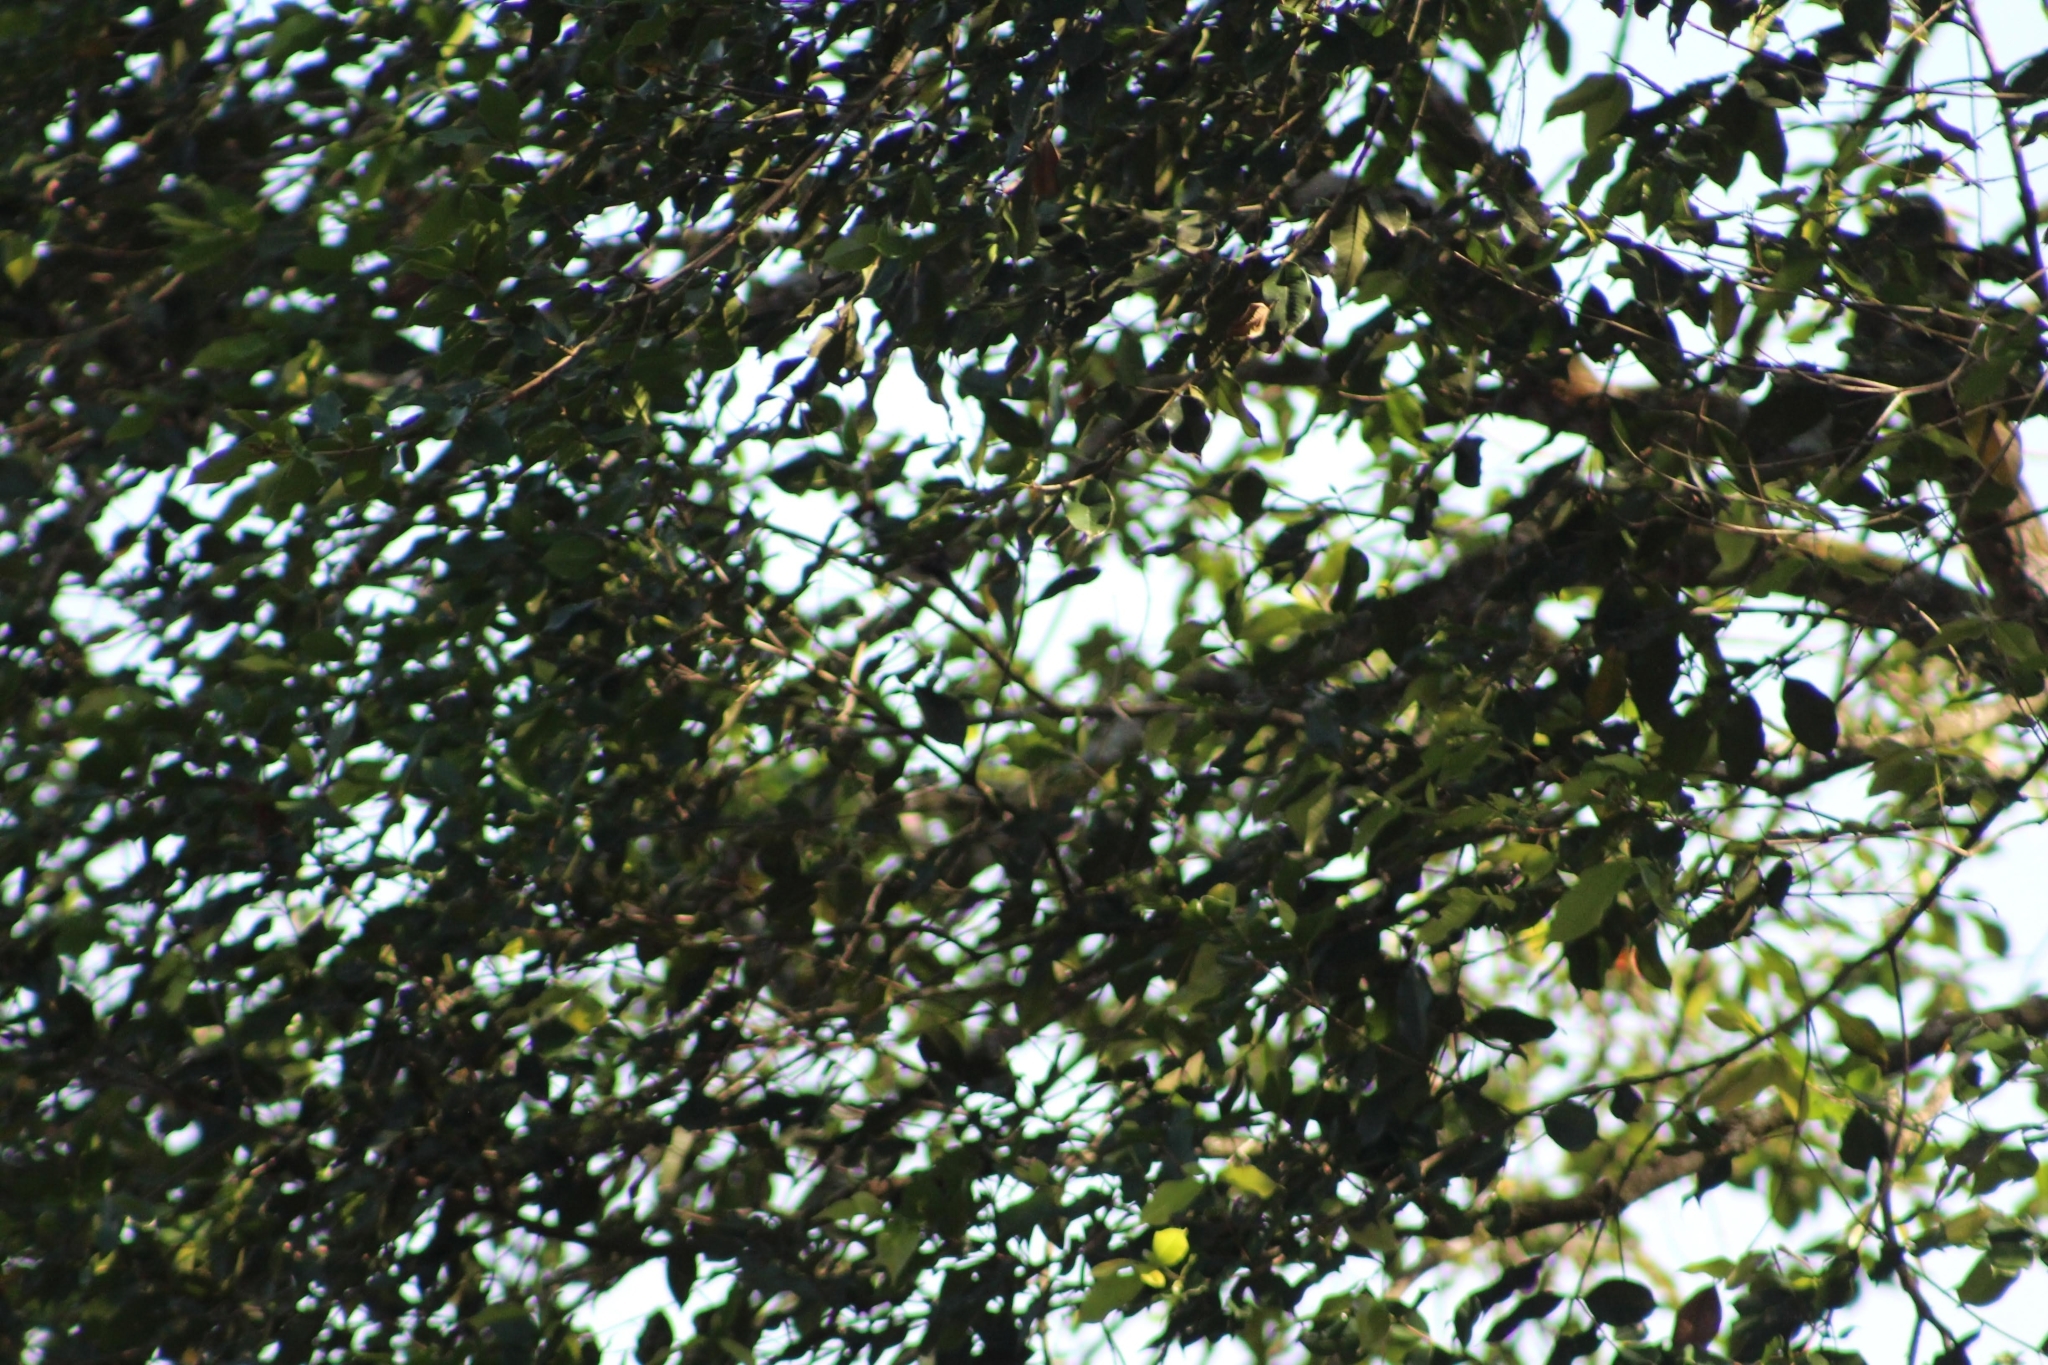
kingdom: Animalia
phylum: Chordata
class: Aves
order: Passeriformes
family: Thraupidae
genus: Paroaria
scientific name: Paroaria nigrogenis
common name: Masked cardinal
